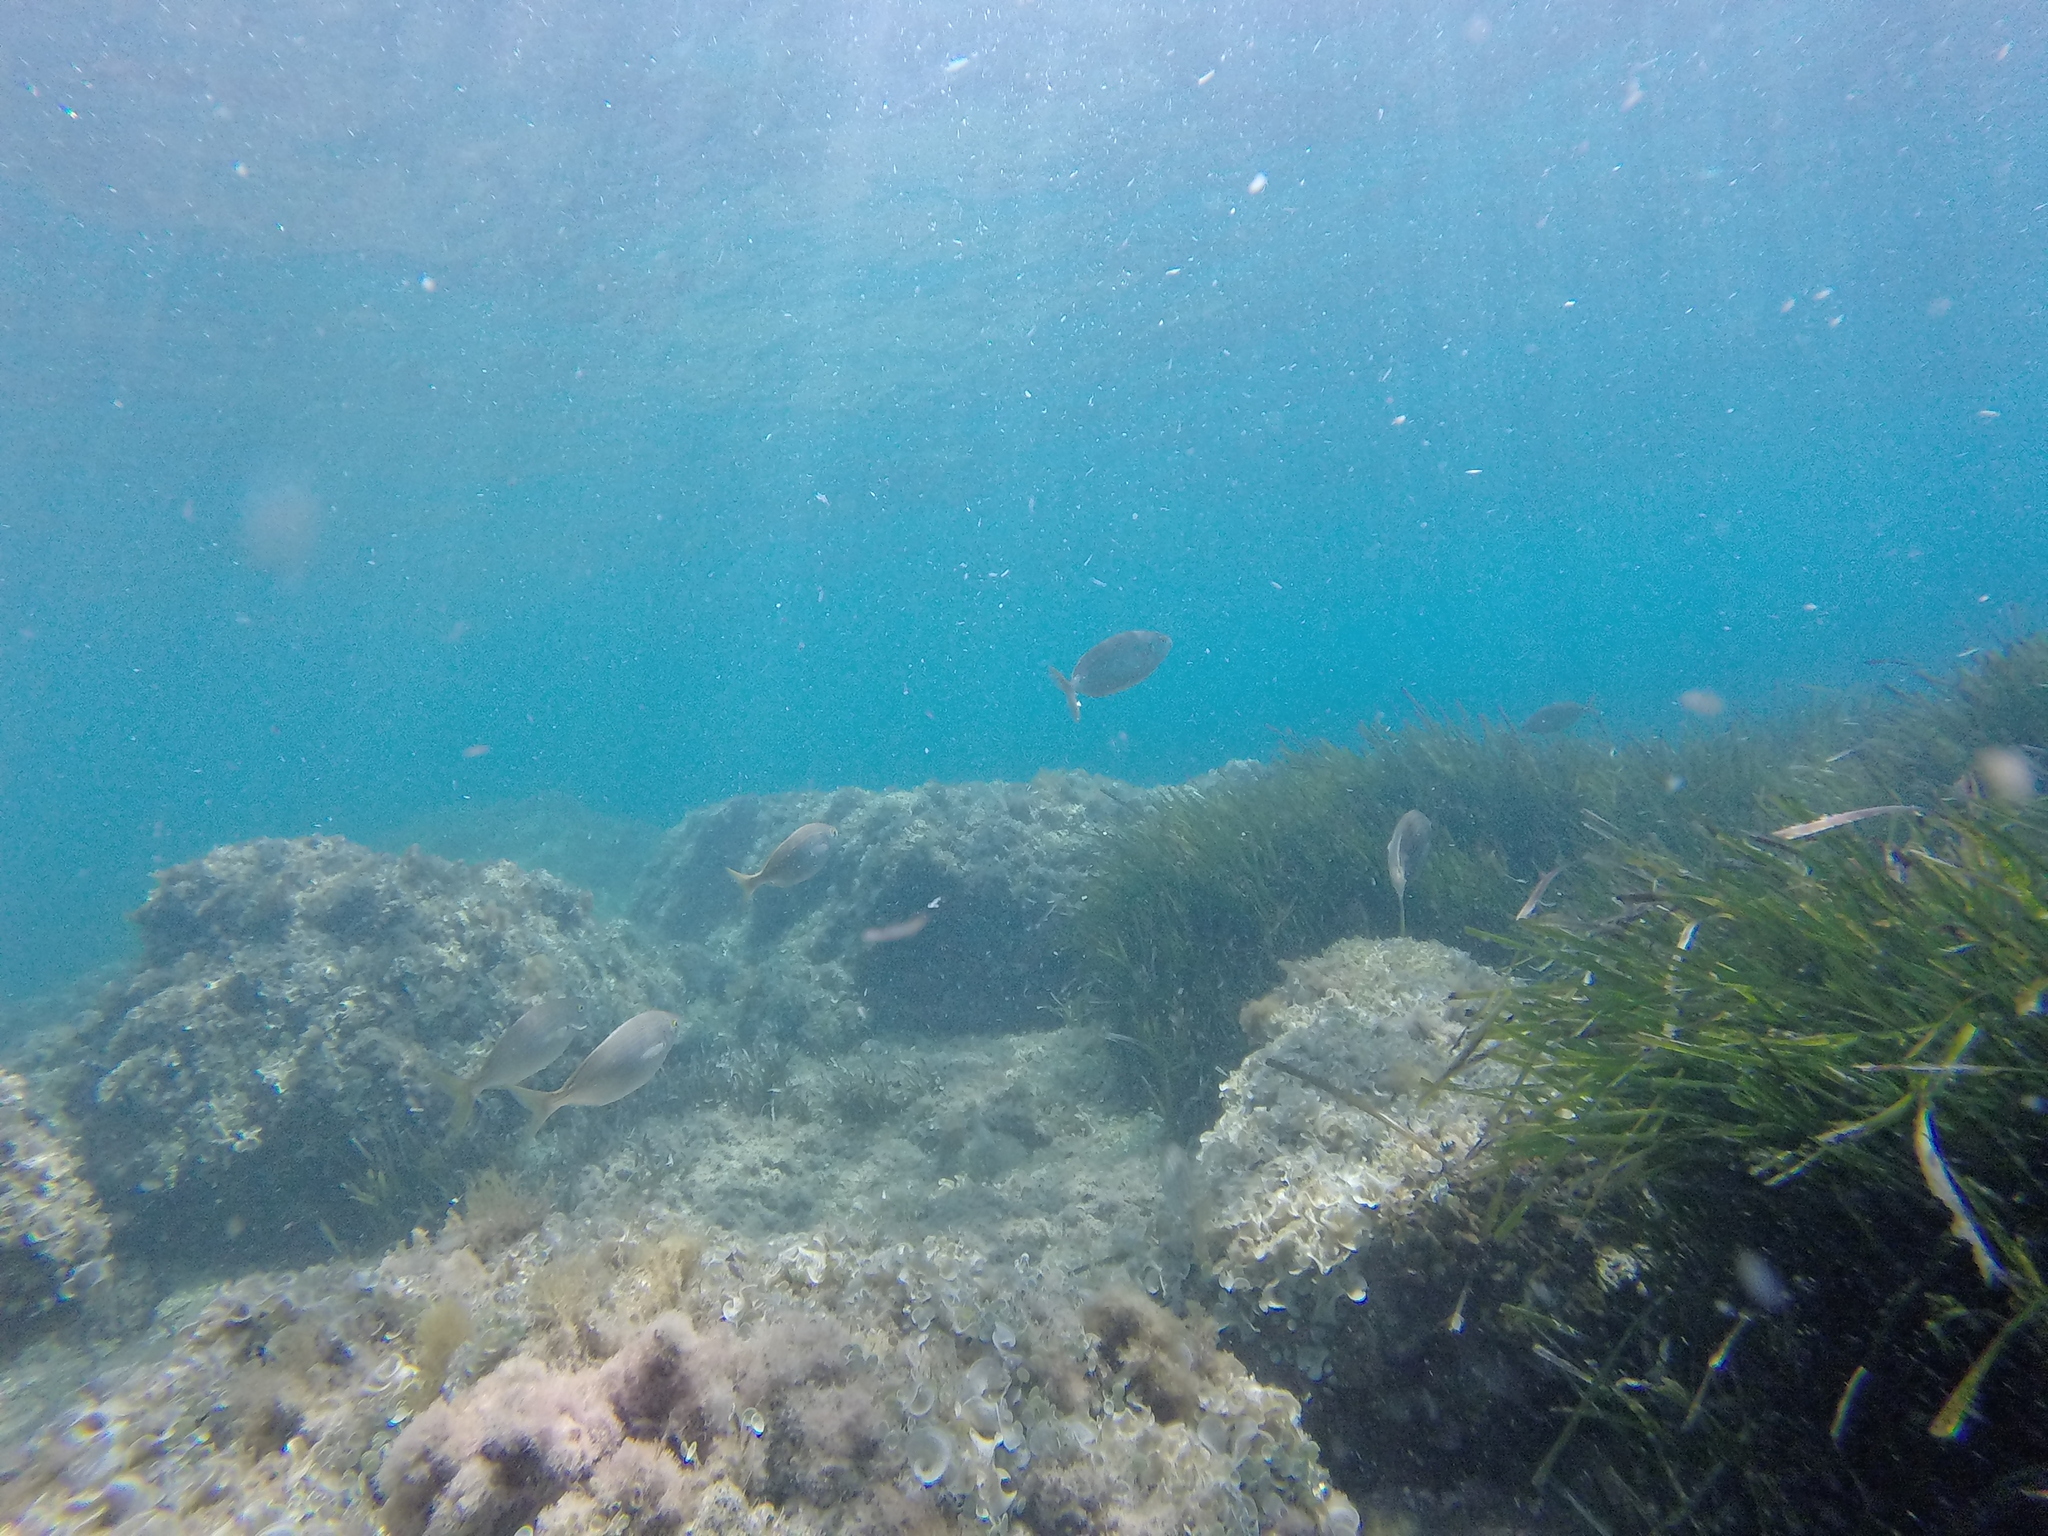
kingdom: Animalia
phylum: Chordata
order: Perciformes
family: Sparidae
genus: Sarpa
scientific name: Sarpa salpa
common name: Salema
